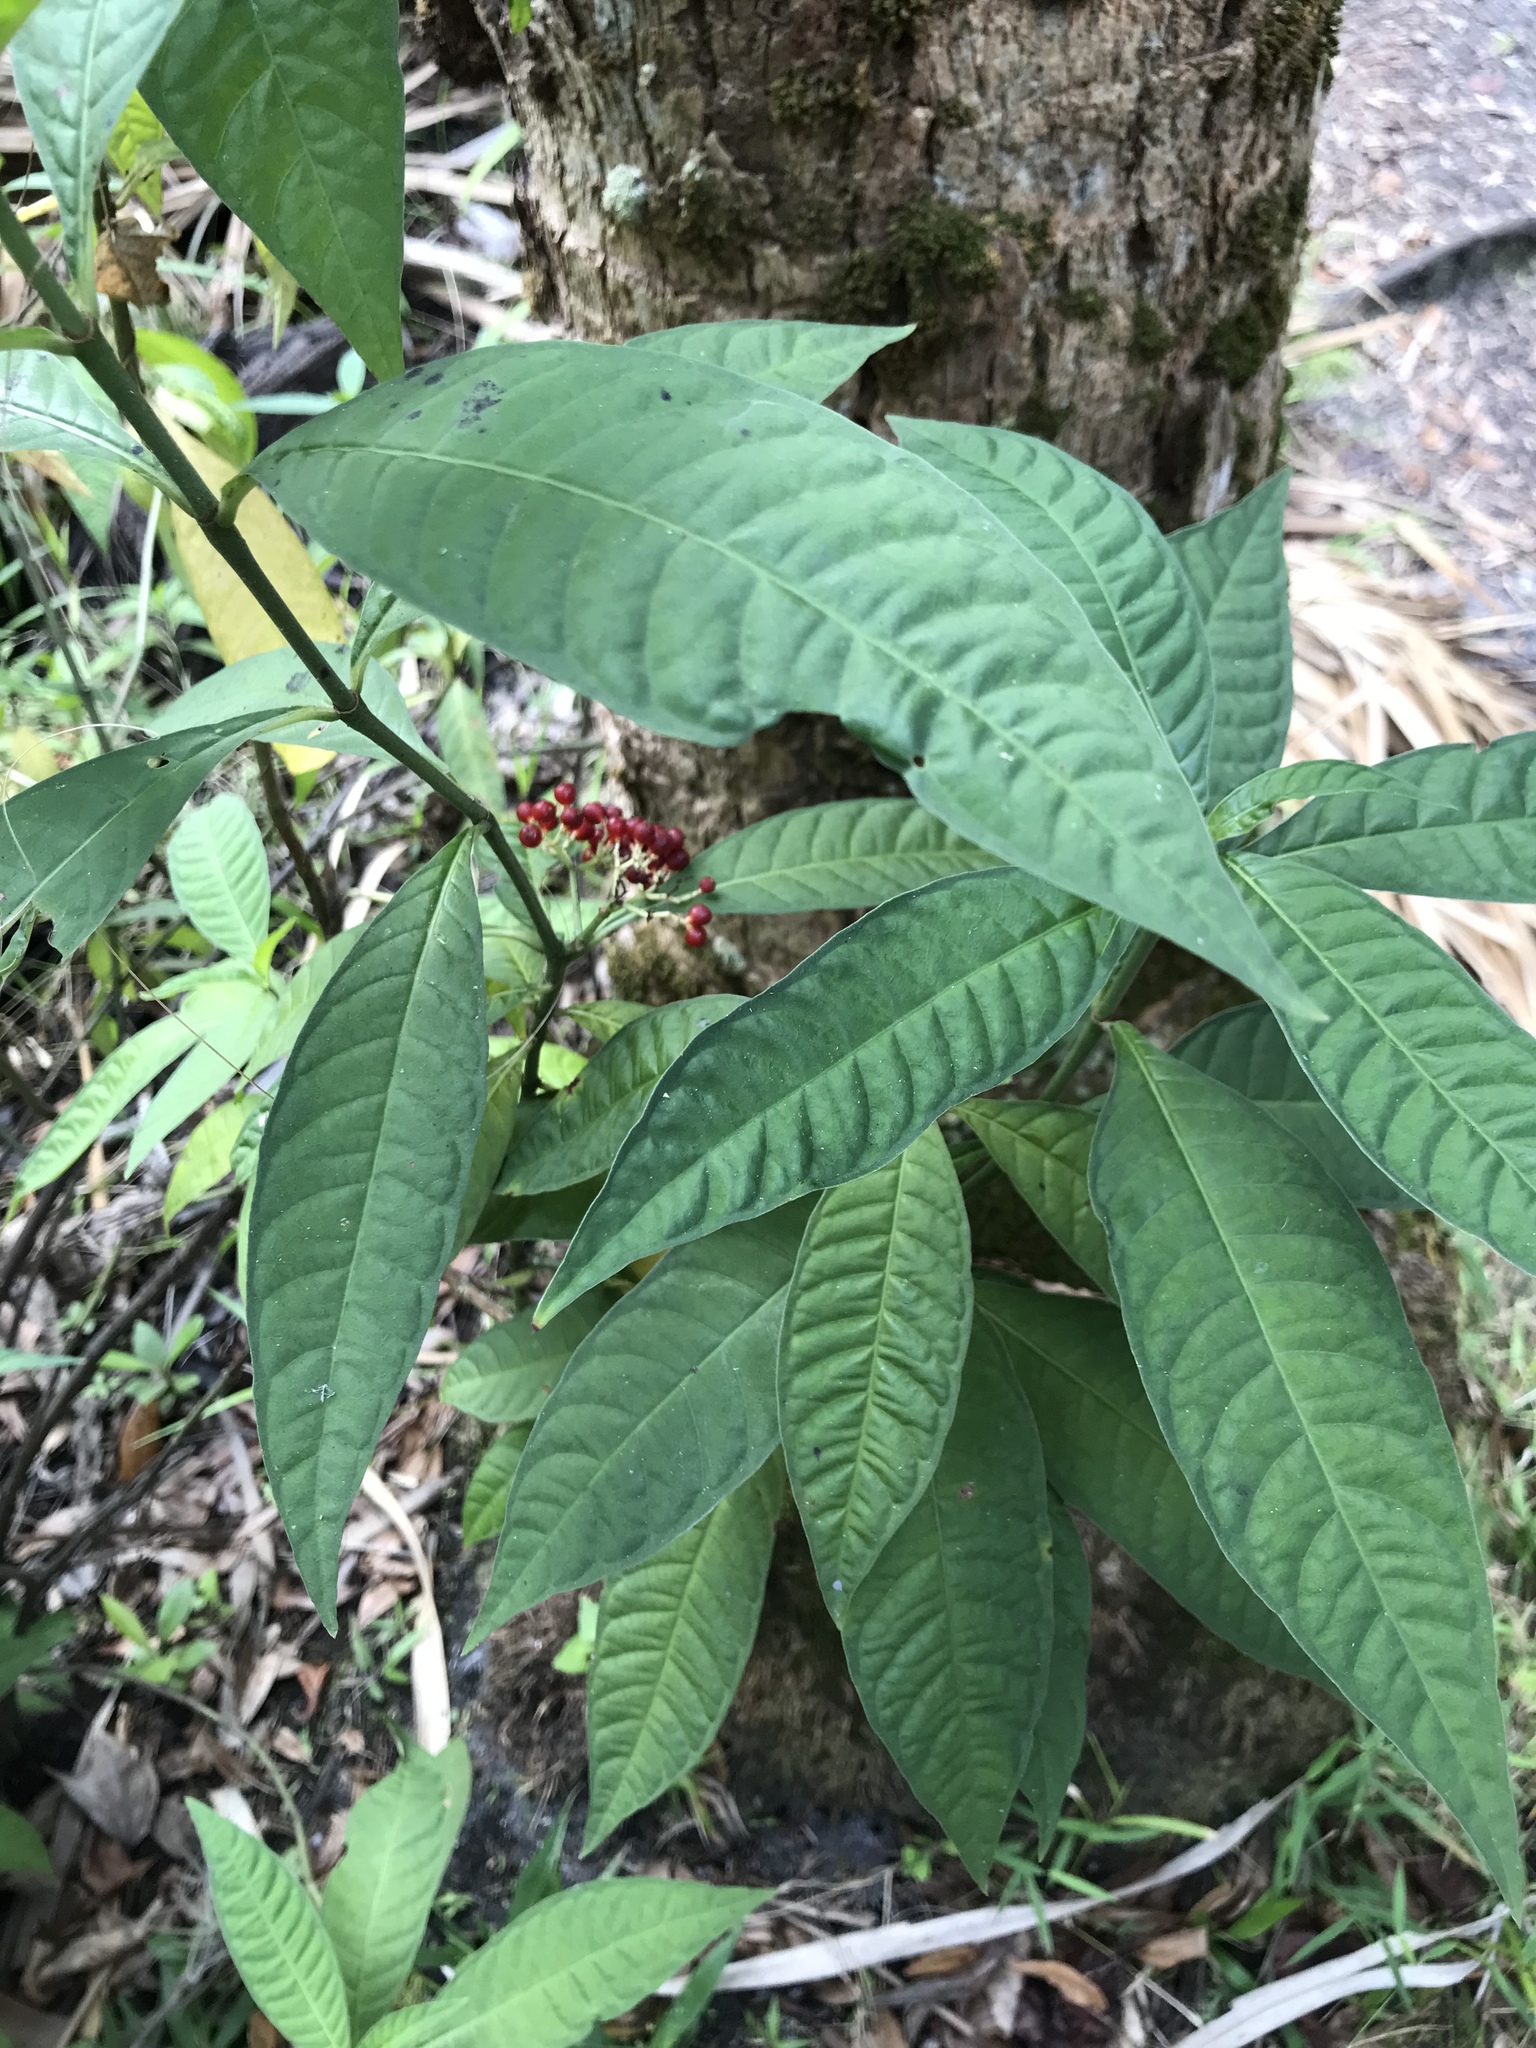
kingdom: Plantae
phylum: Tracheophyta
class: Magnoliopsida
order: Gentianales
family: Rubiaceae
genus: Psychotria
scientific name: Psychotria tenuifolia
